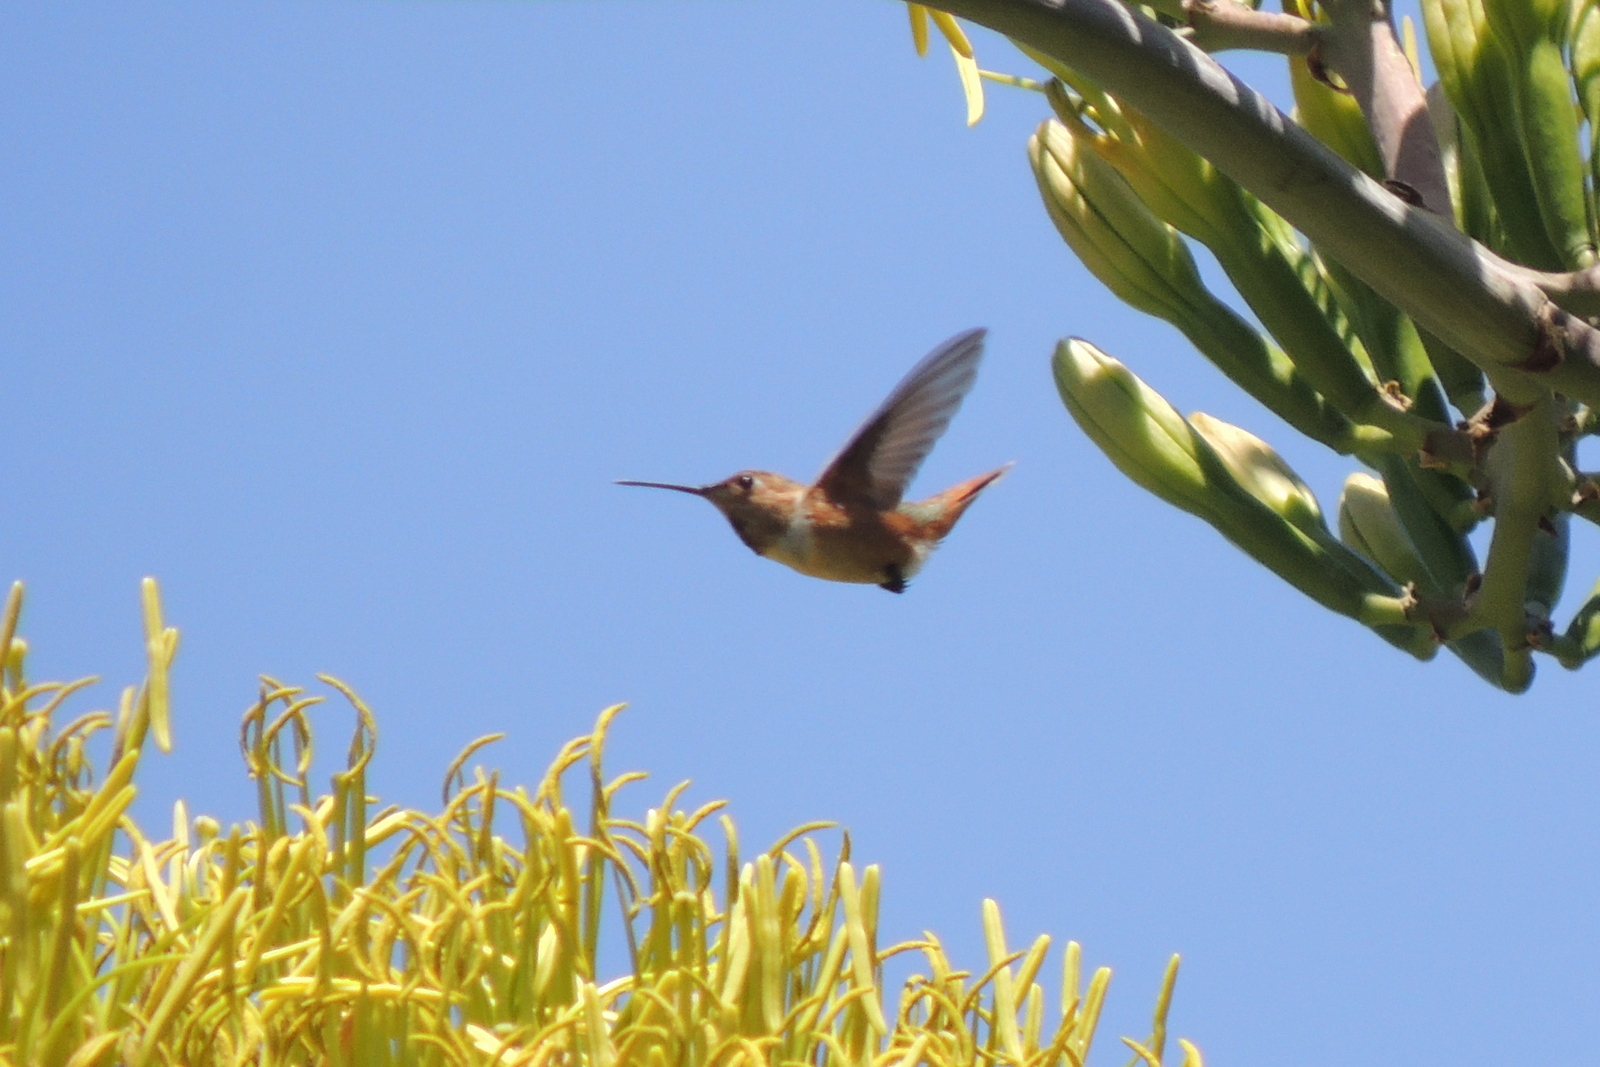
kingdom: Animalia
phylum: Chordata
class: Aves
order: Apodiformes
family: Trochilidae
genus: Selasphorus
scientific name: Selasphorus
